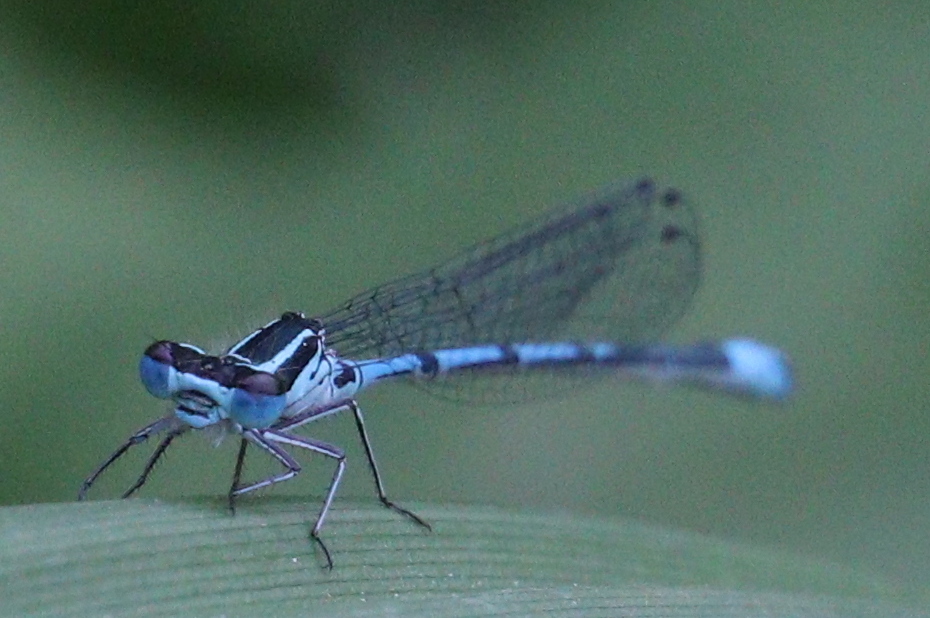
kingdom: Animalia
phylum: Arthropoda
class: Insecta
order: Odonata
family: Coenagrionidae
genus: Coenagrion
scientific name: Coenagrion puella
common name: Azure damselfly
